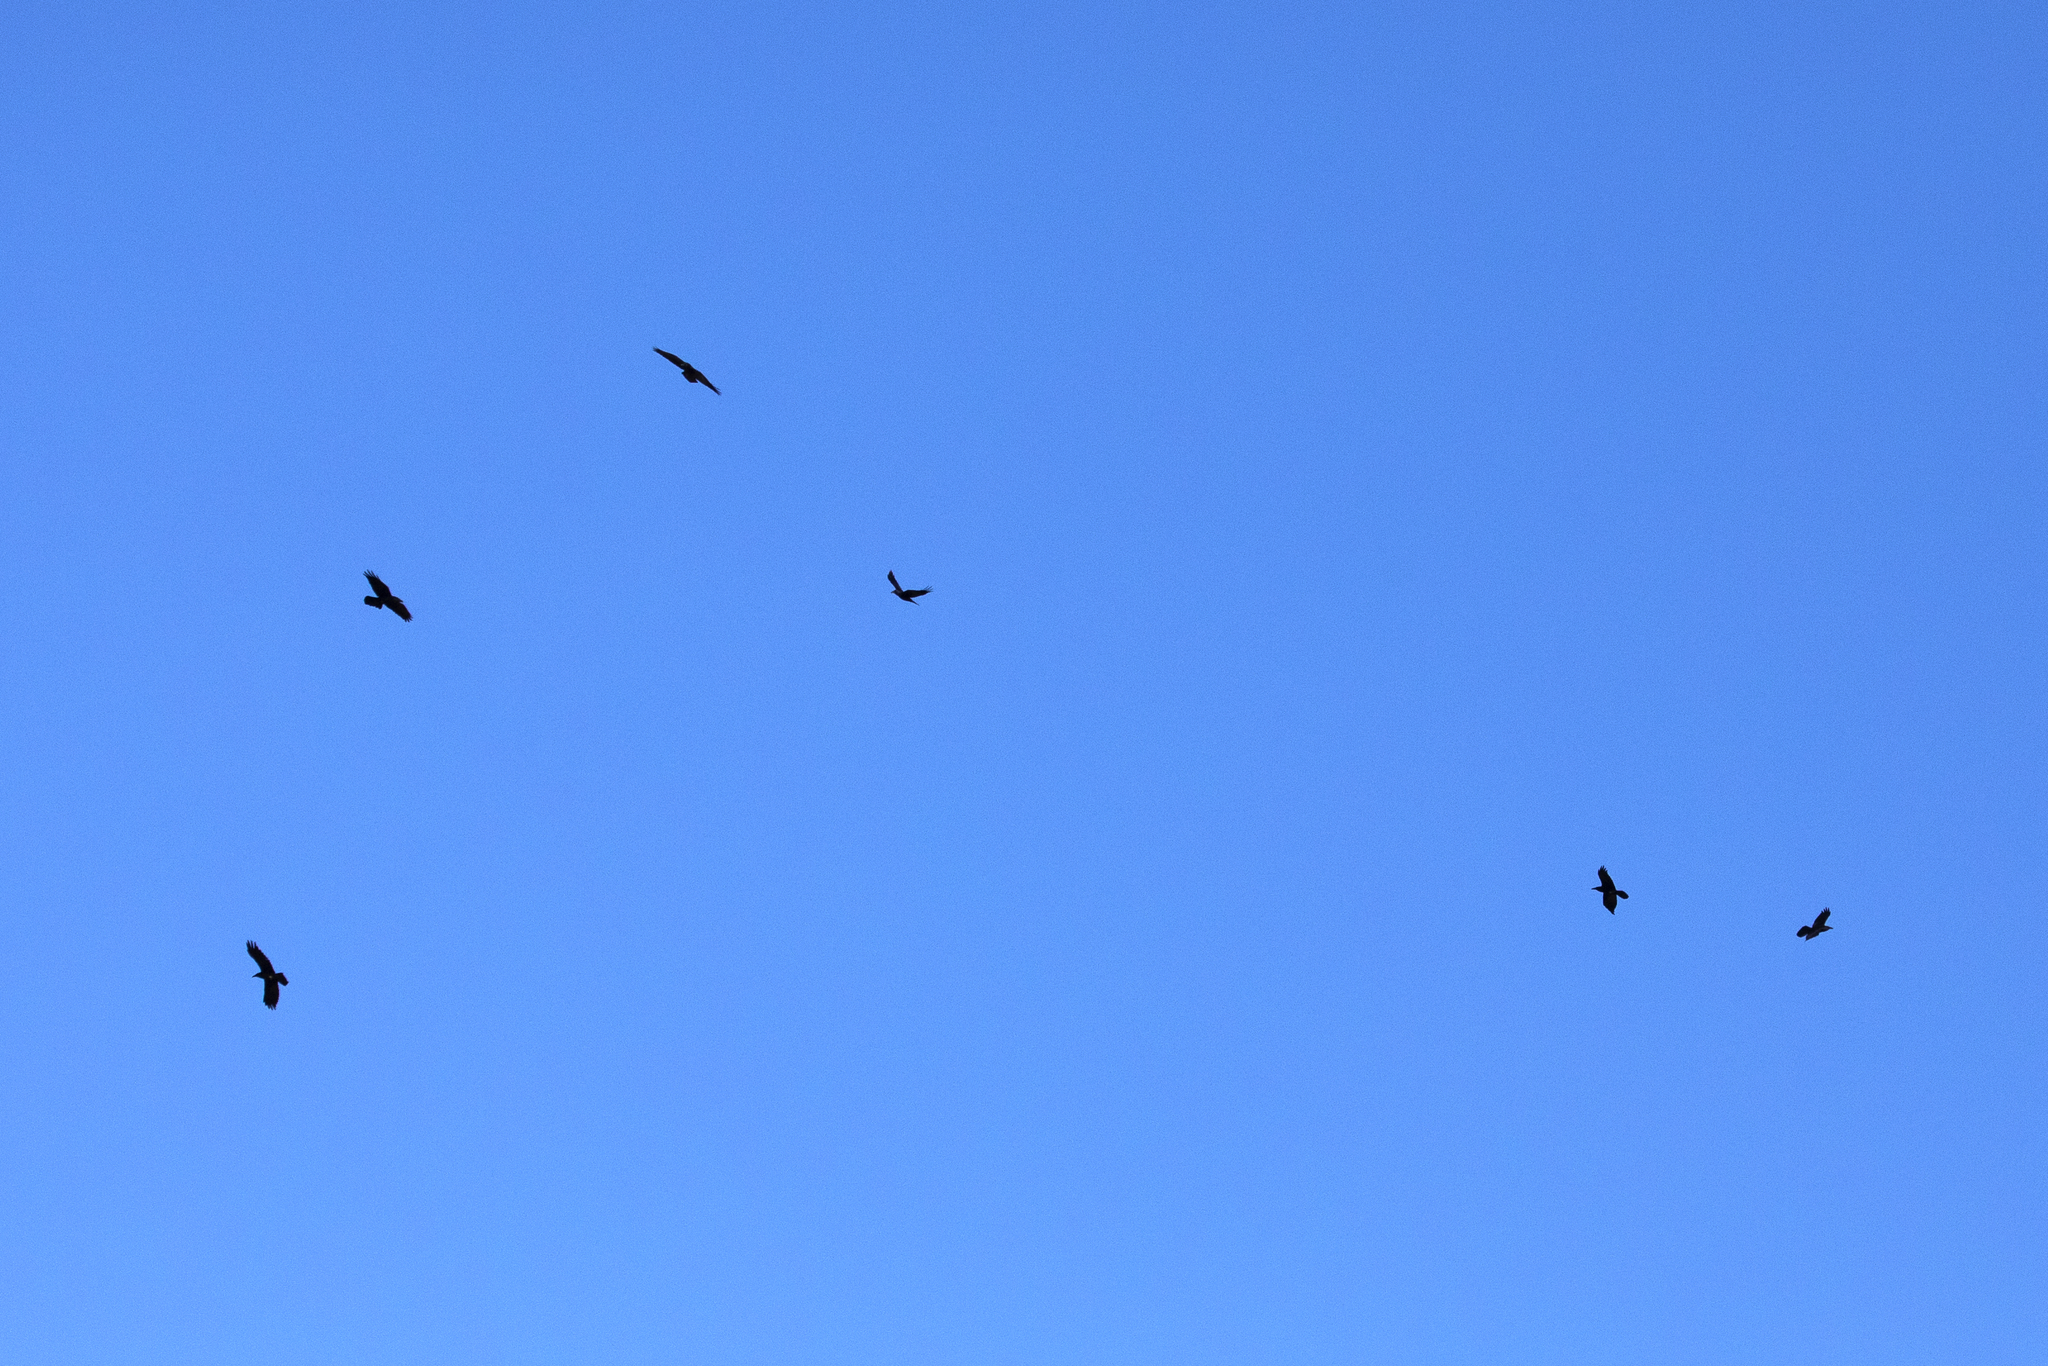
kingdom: Animalia
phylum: Chordata
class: Aves
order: Passeriformes
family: Corvidae
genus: Corvus
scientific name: Corvus corax
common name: Common raven
